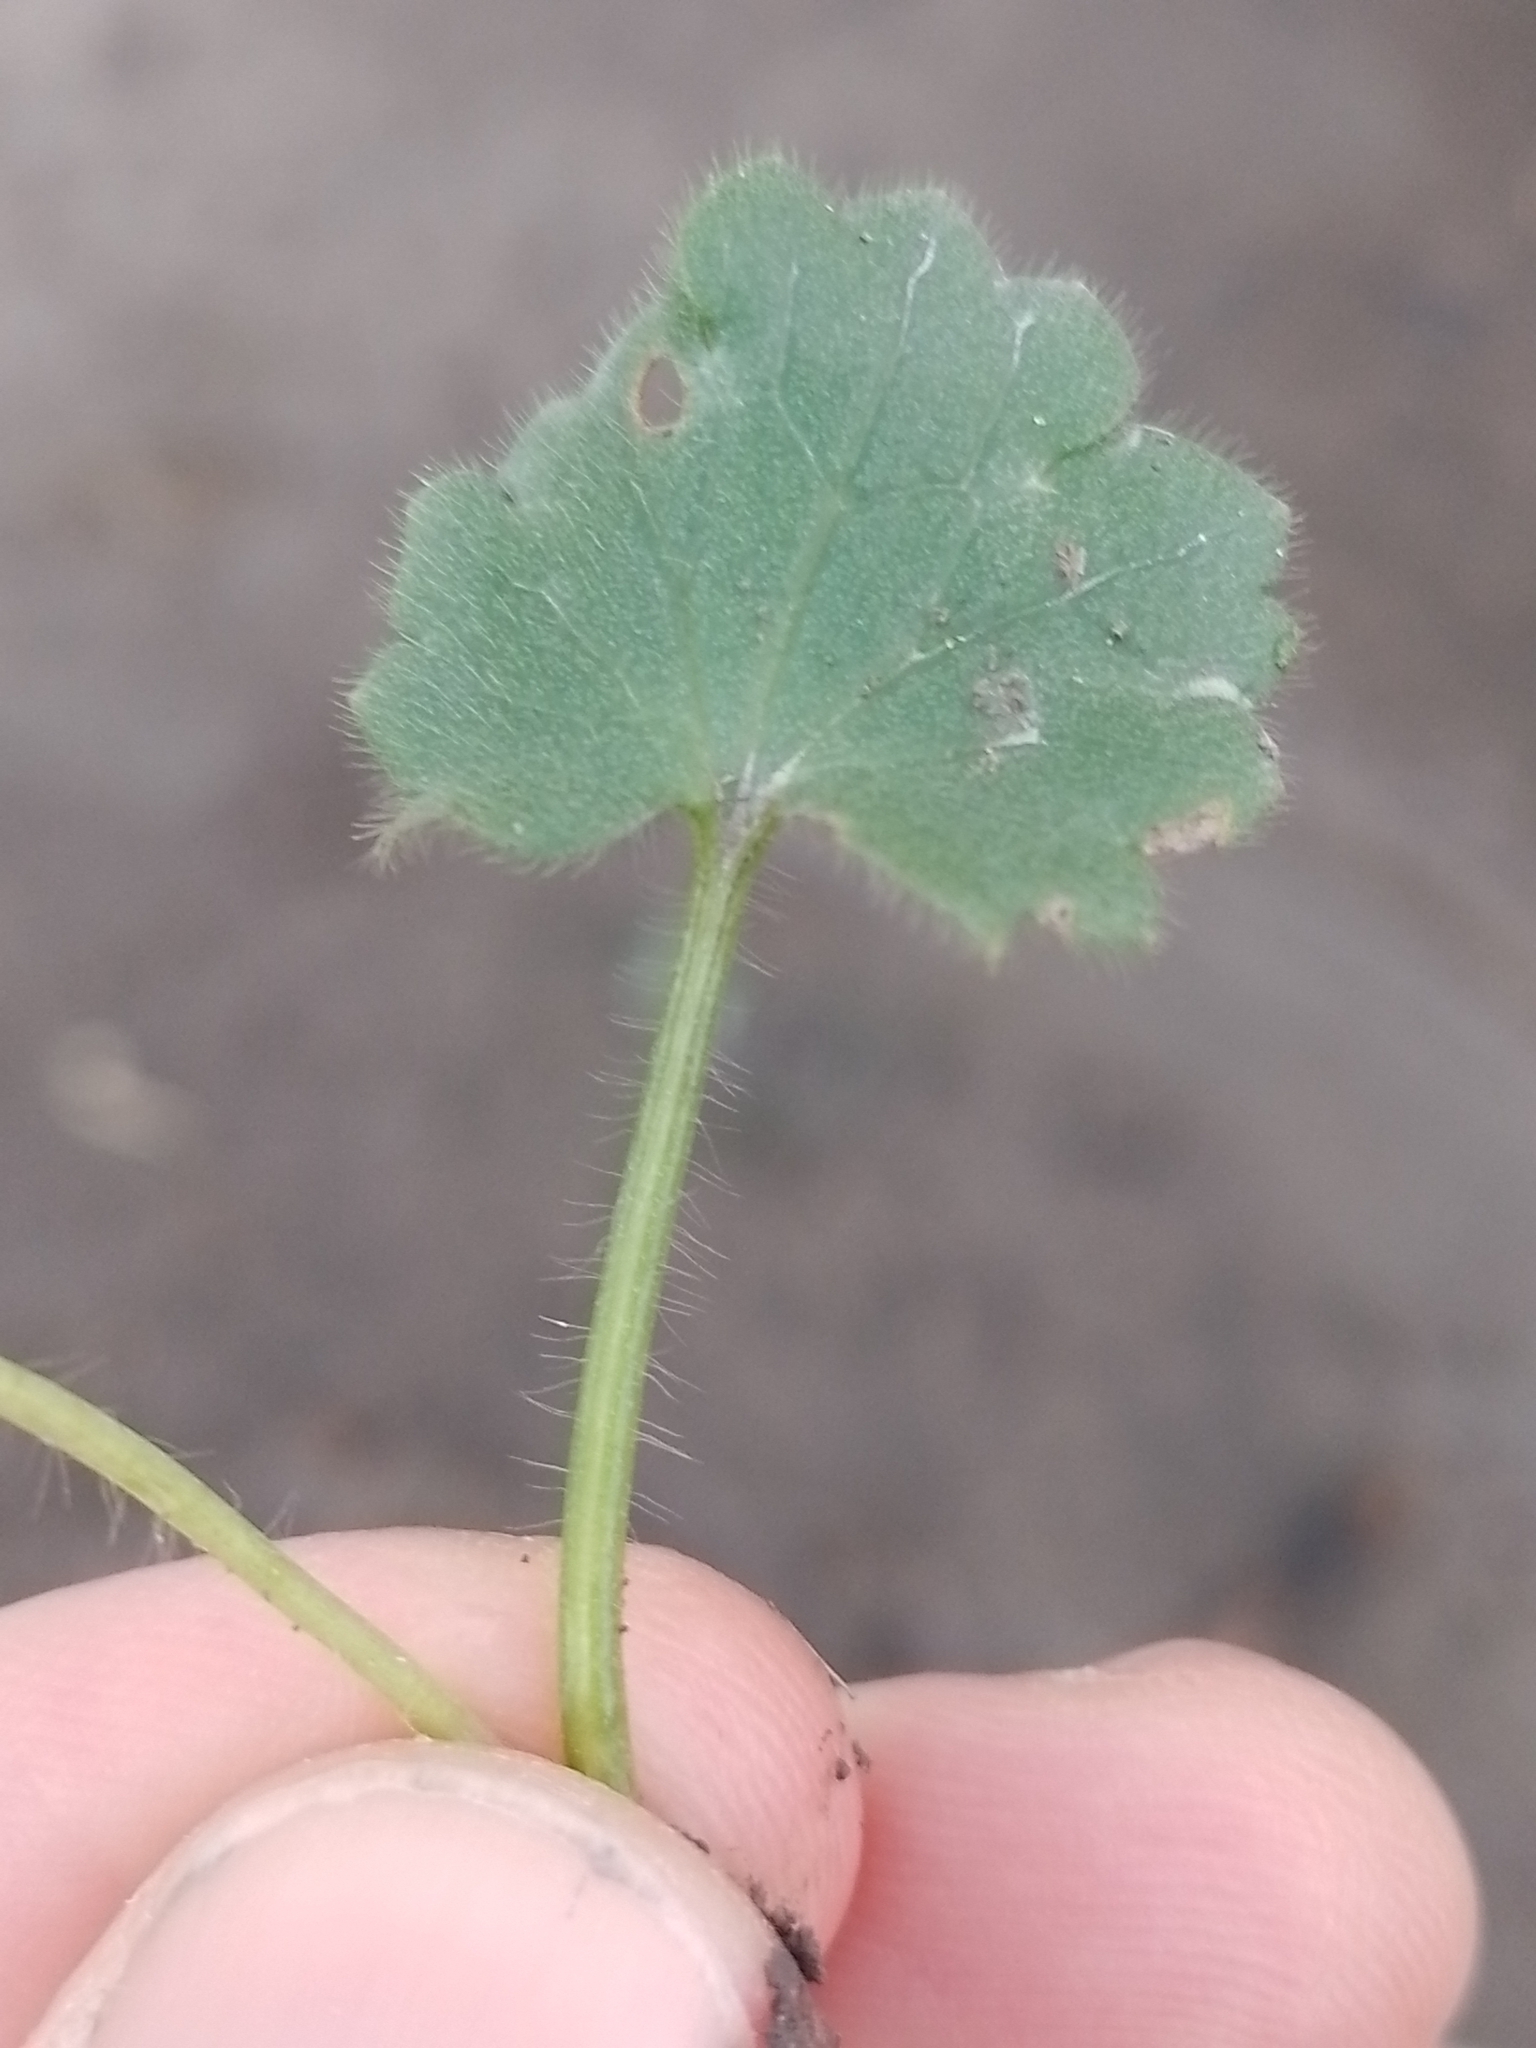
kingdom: Plantae
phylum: Tracheophyta
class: Magnoliopsida
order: Ranunculales
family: Ranunculaceae
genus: Ranunculus
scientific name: Ranunculus parviflorus
